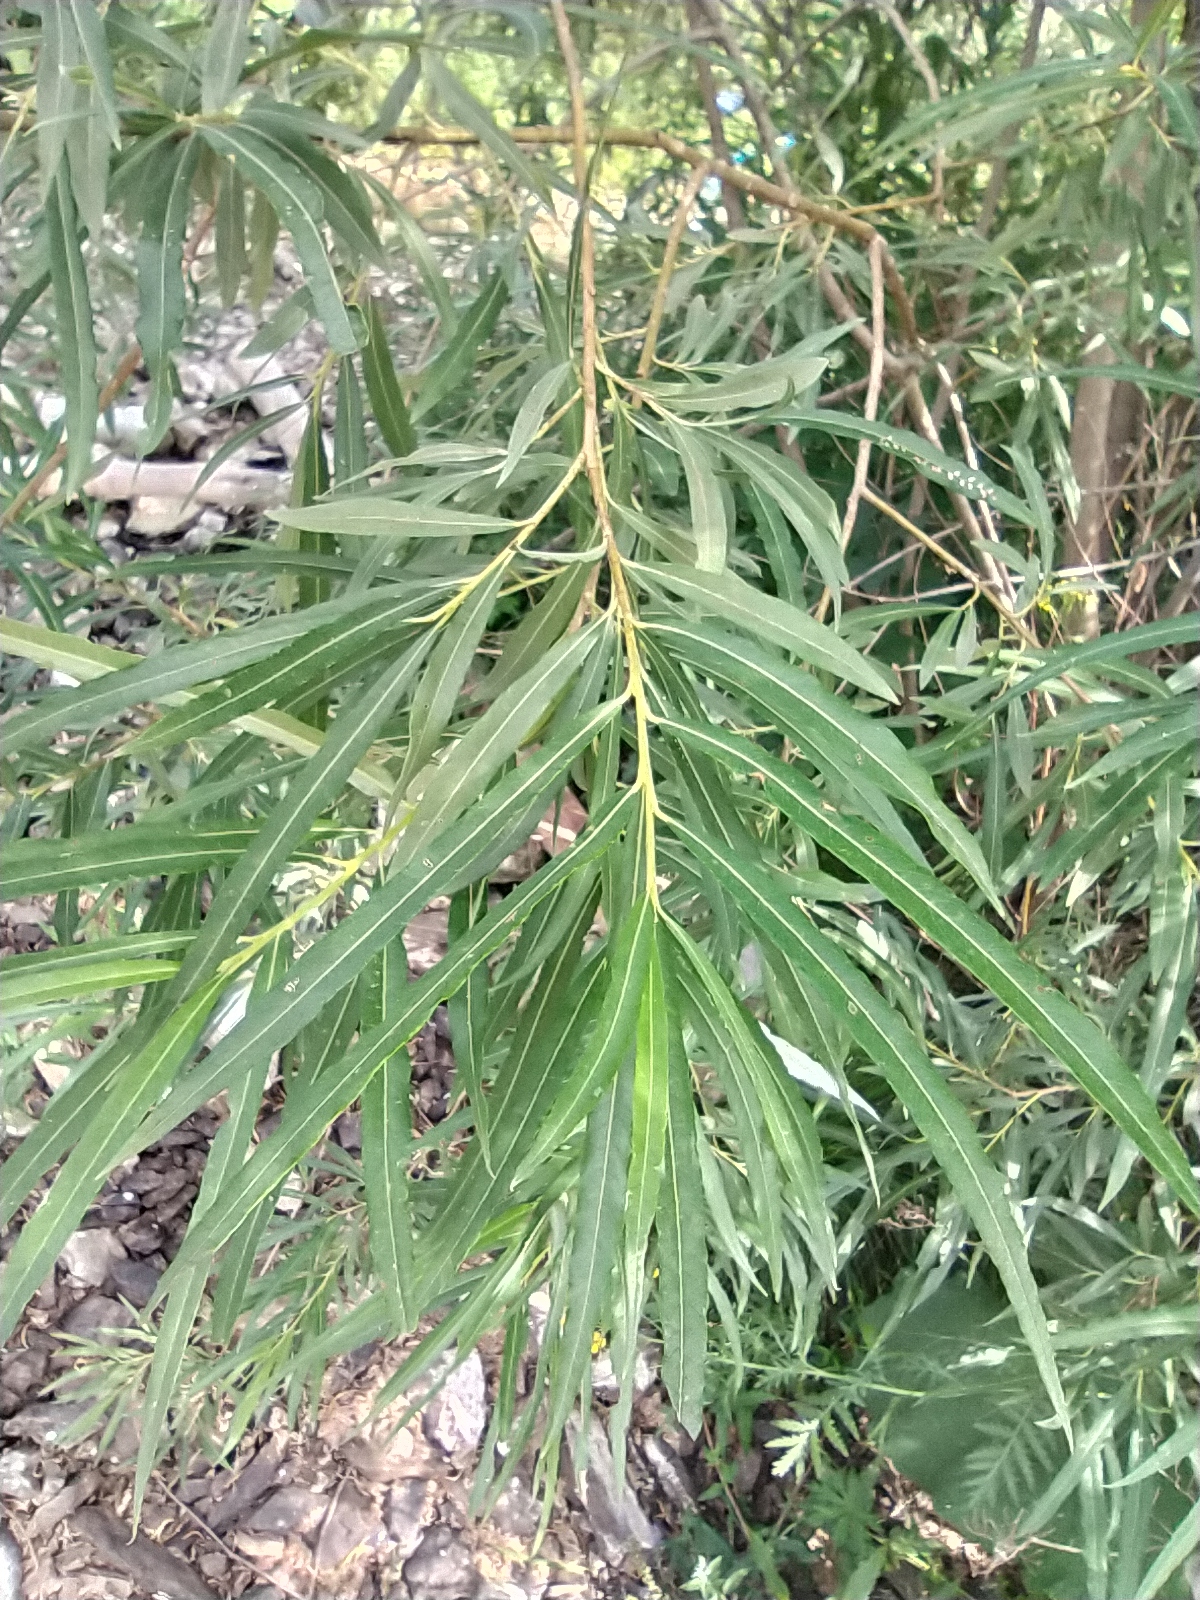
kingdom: Plantae
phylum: Tracheophyta
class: Magnoliopsida
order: Malpighiales
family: Salicaceae
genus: Salix
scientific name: Salix viminalis
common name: Osier
